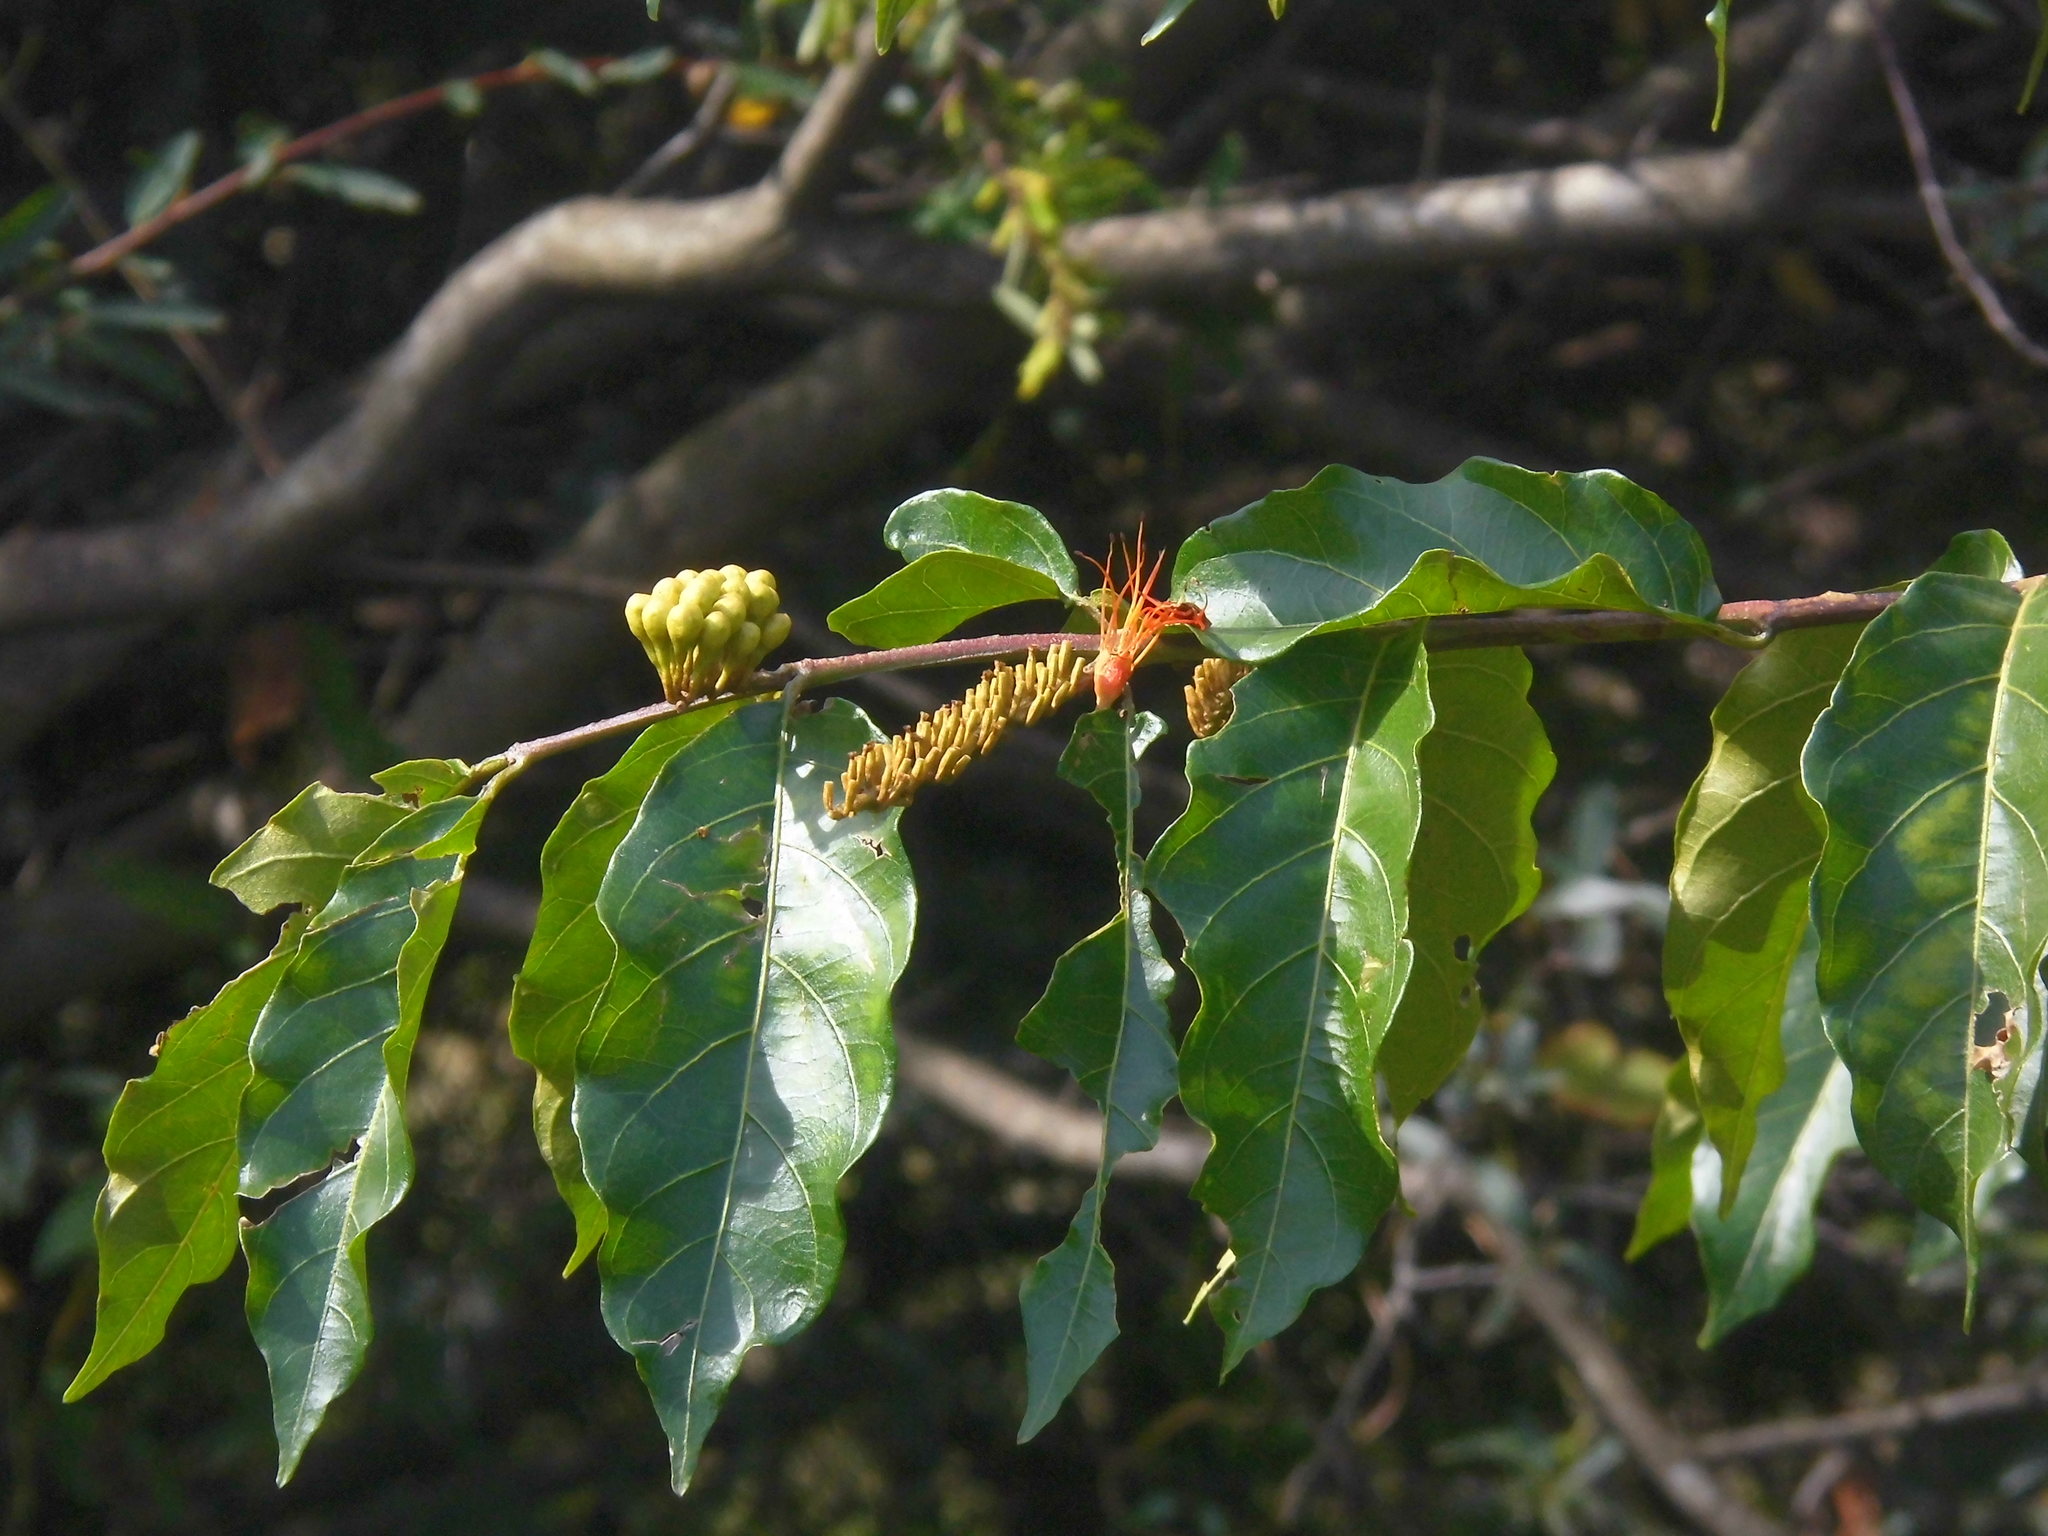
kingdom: Plantae
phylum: Tracheophyta
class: Magnoliopsida
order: Myrtales
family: Combretaceae
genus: Combretum
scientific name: Combretum fruticosum
